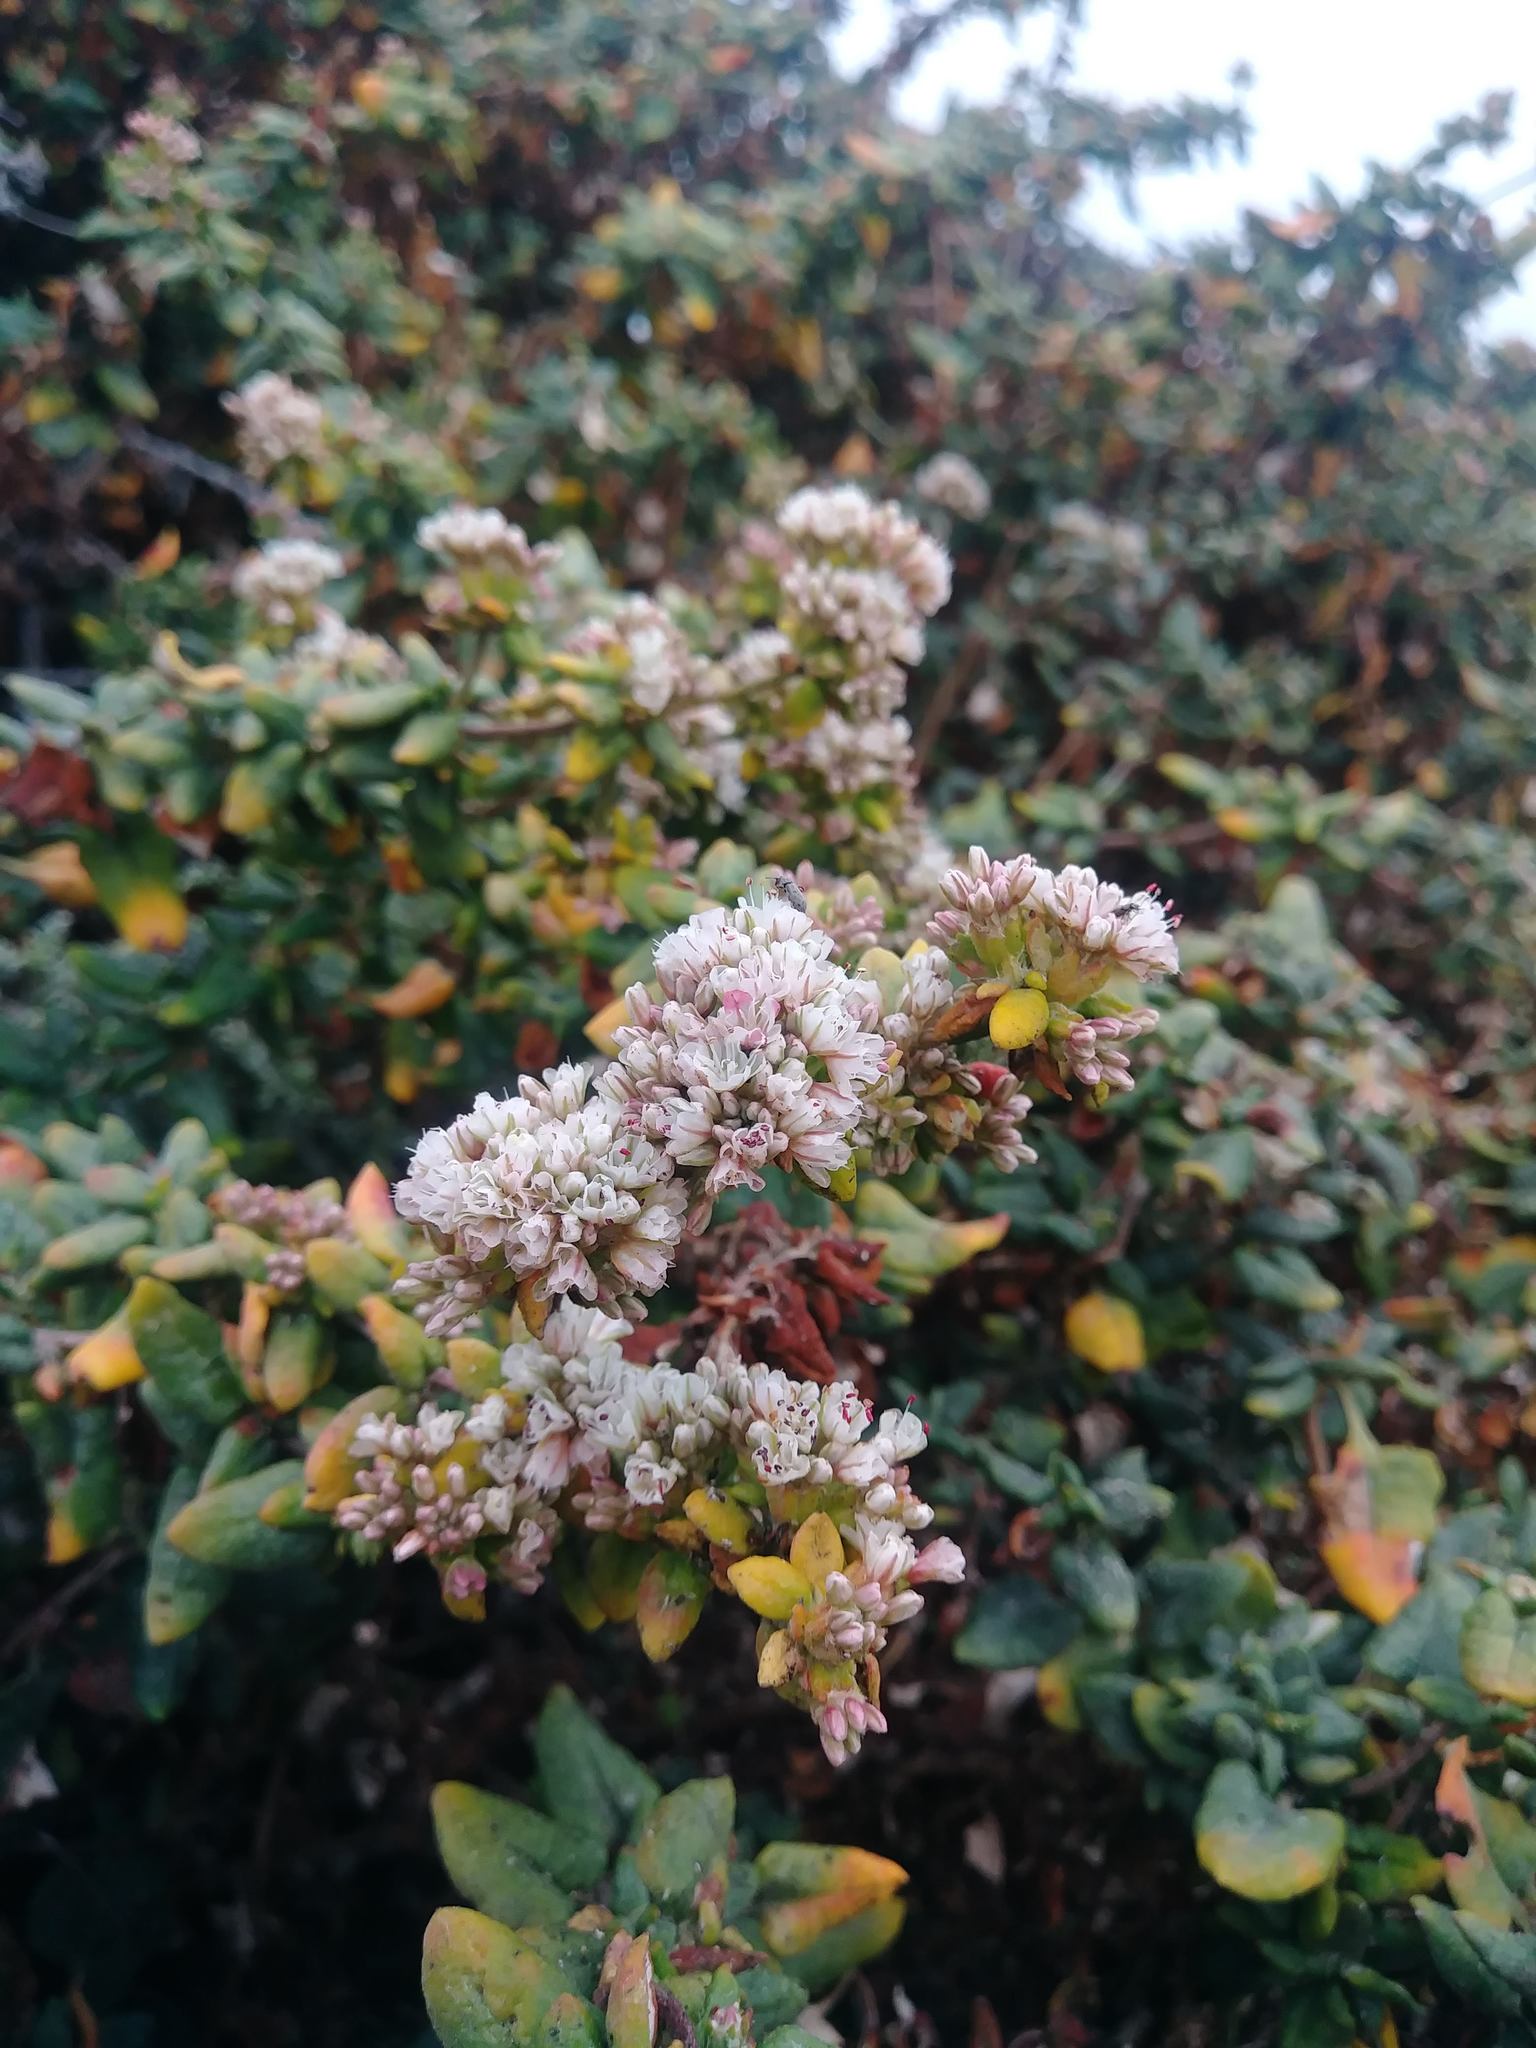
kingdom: Plantae
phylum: Tracheophyta
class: Magnoliopsida
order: Caryophyllales
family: Polygonaceae
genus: Eriogonum
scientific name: Eriogonum parvifolium
